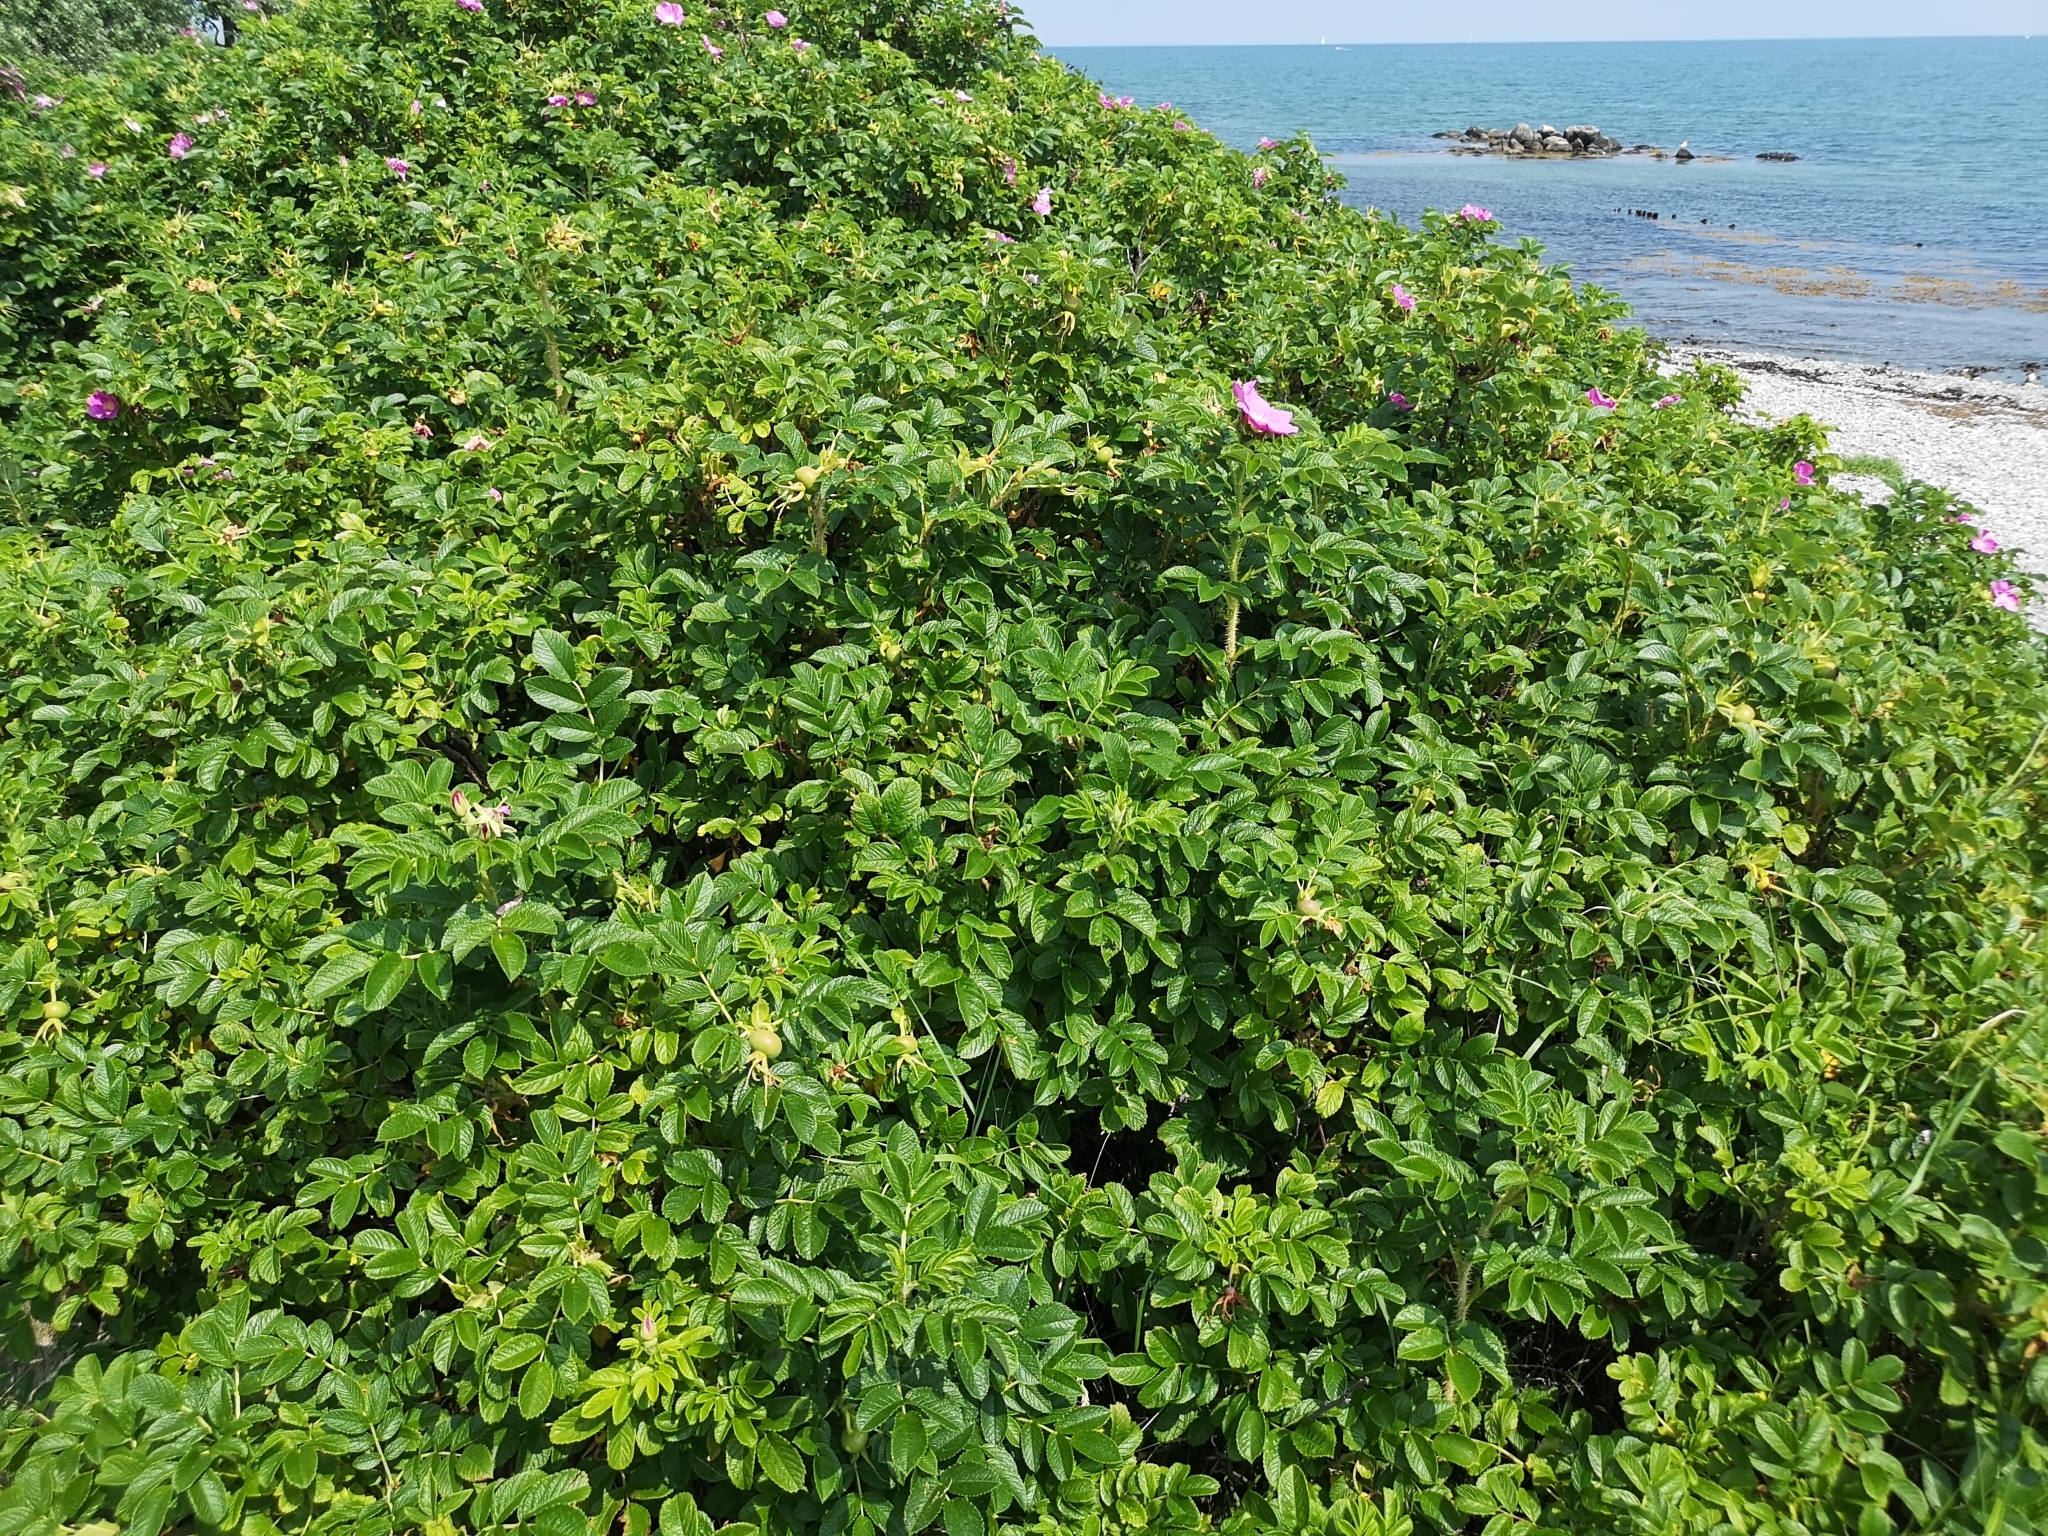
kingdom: Plantae
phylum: Tracheophyta
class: Magnoliopsida
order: Rosales
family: Rosaceae
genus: Rosa
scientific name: Rosa rugosa
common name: Japanese rose
